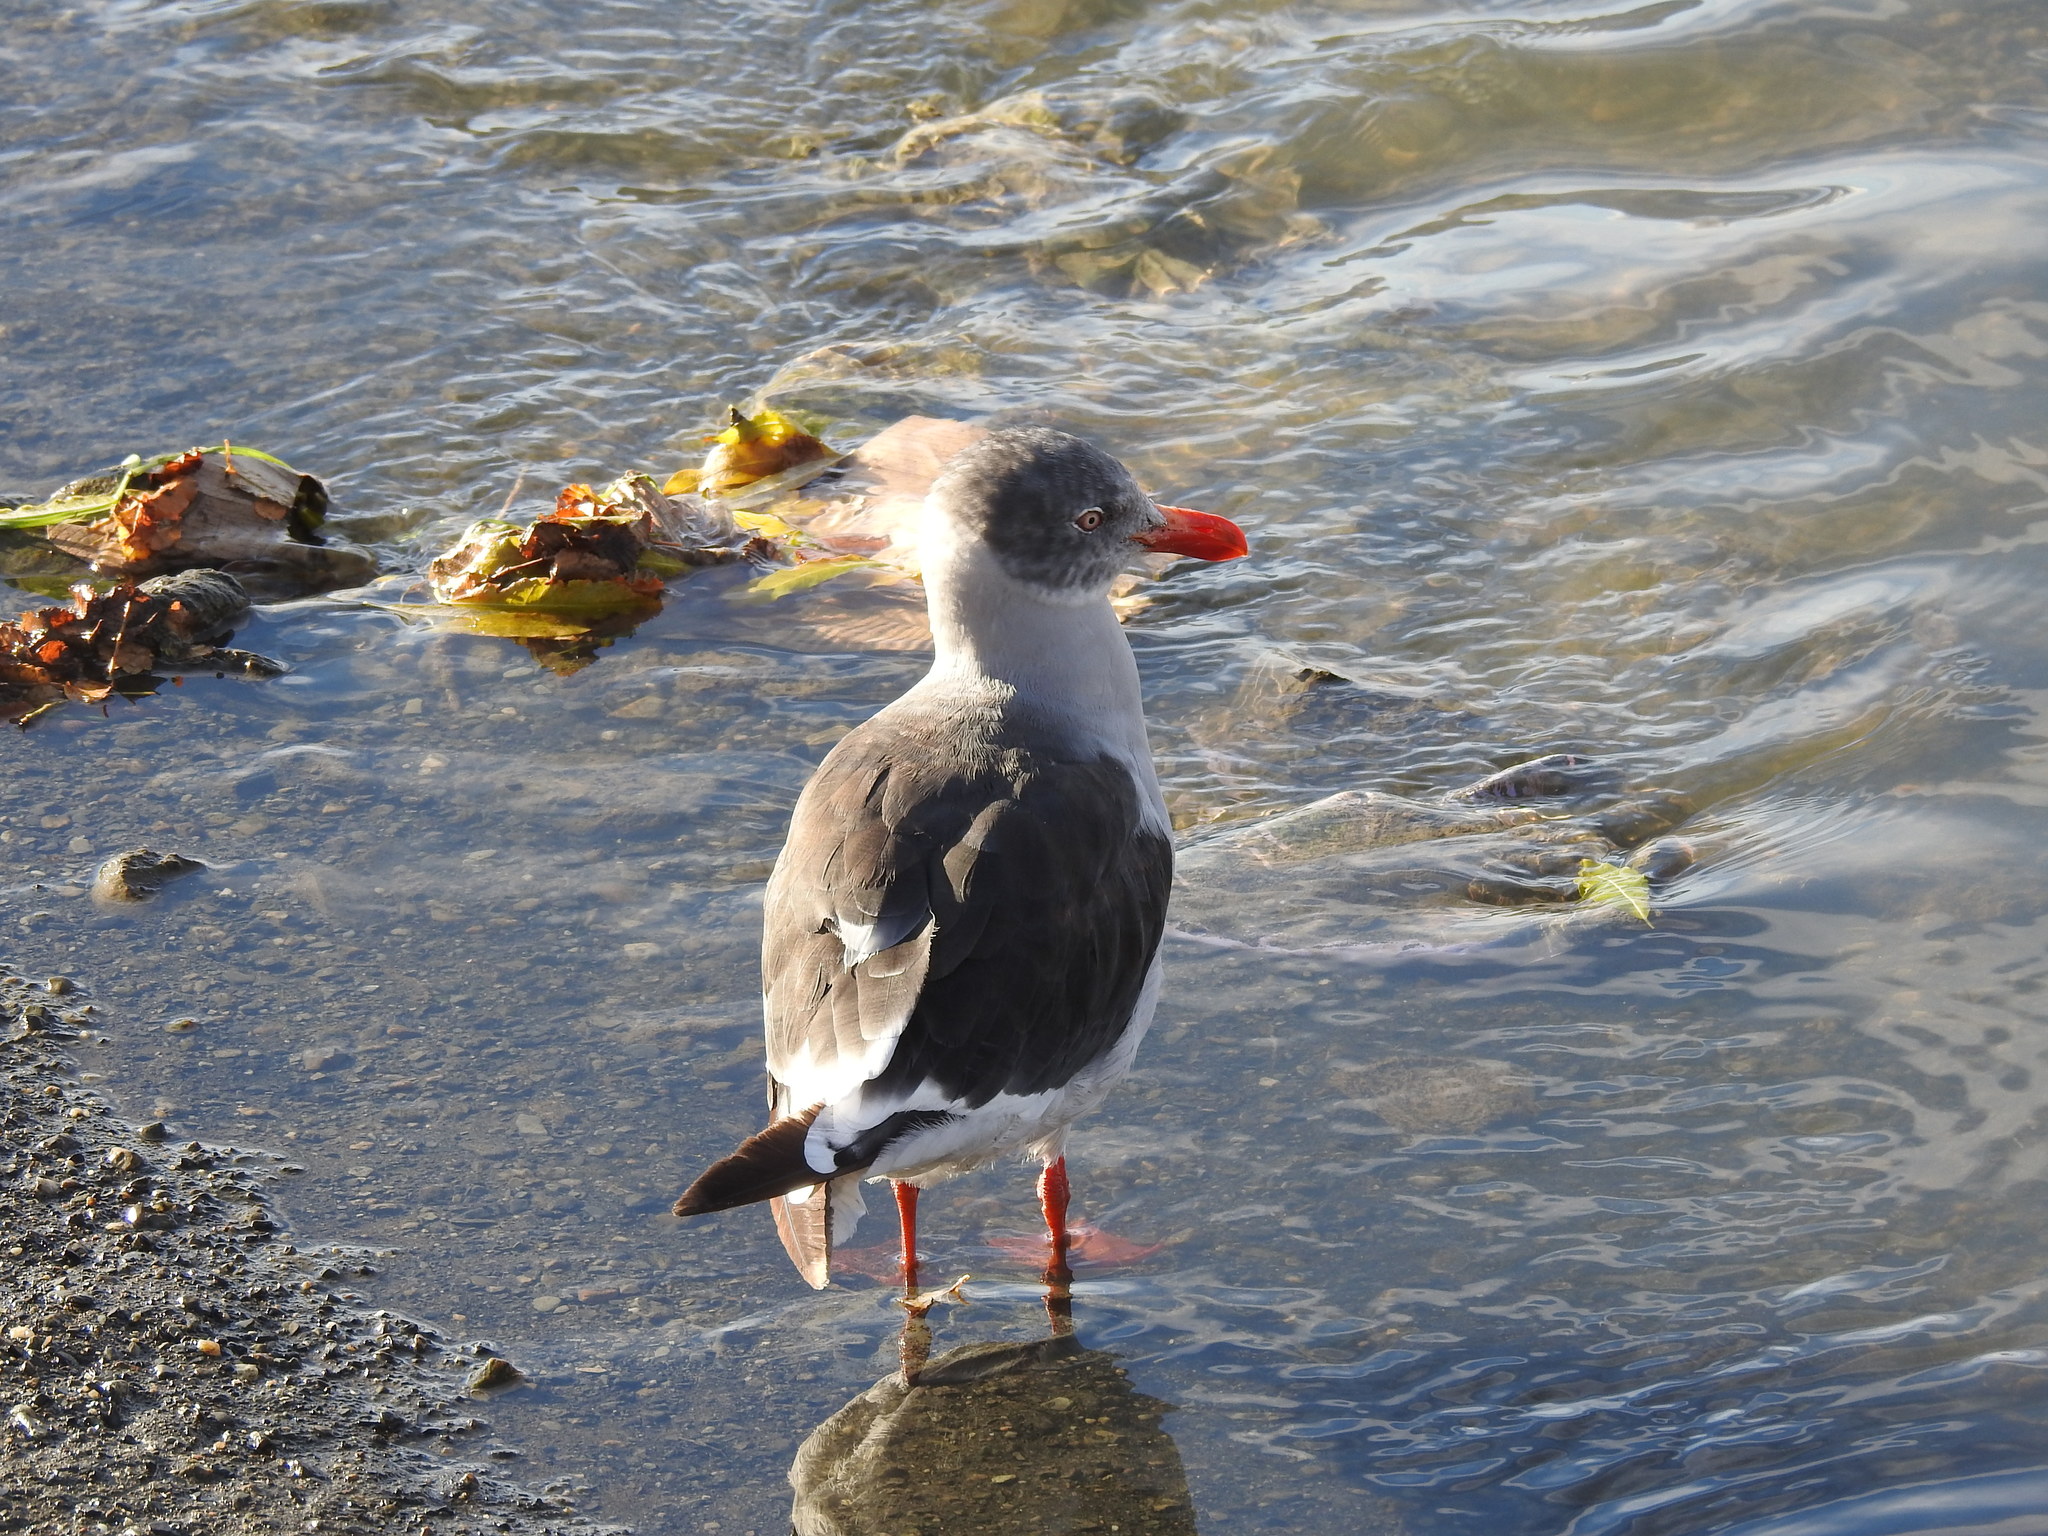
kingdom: Animalia
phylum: Chordata
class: Aves
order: Charadriiformes
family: Laridae
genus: Leucophaeus
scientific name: Leucophaeus scoresbii
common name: Dolphin gull
